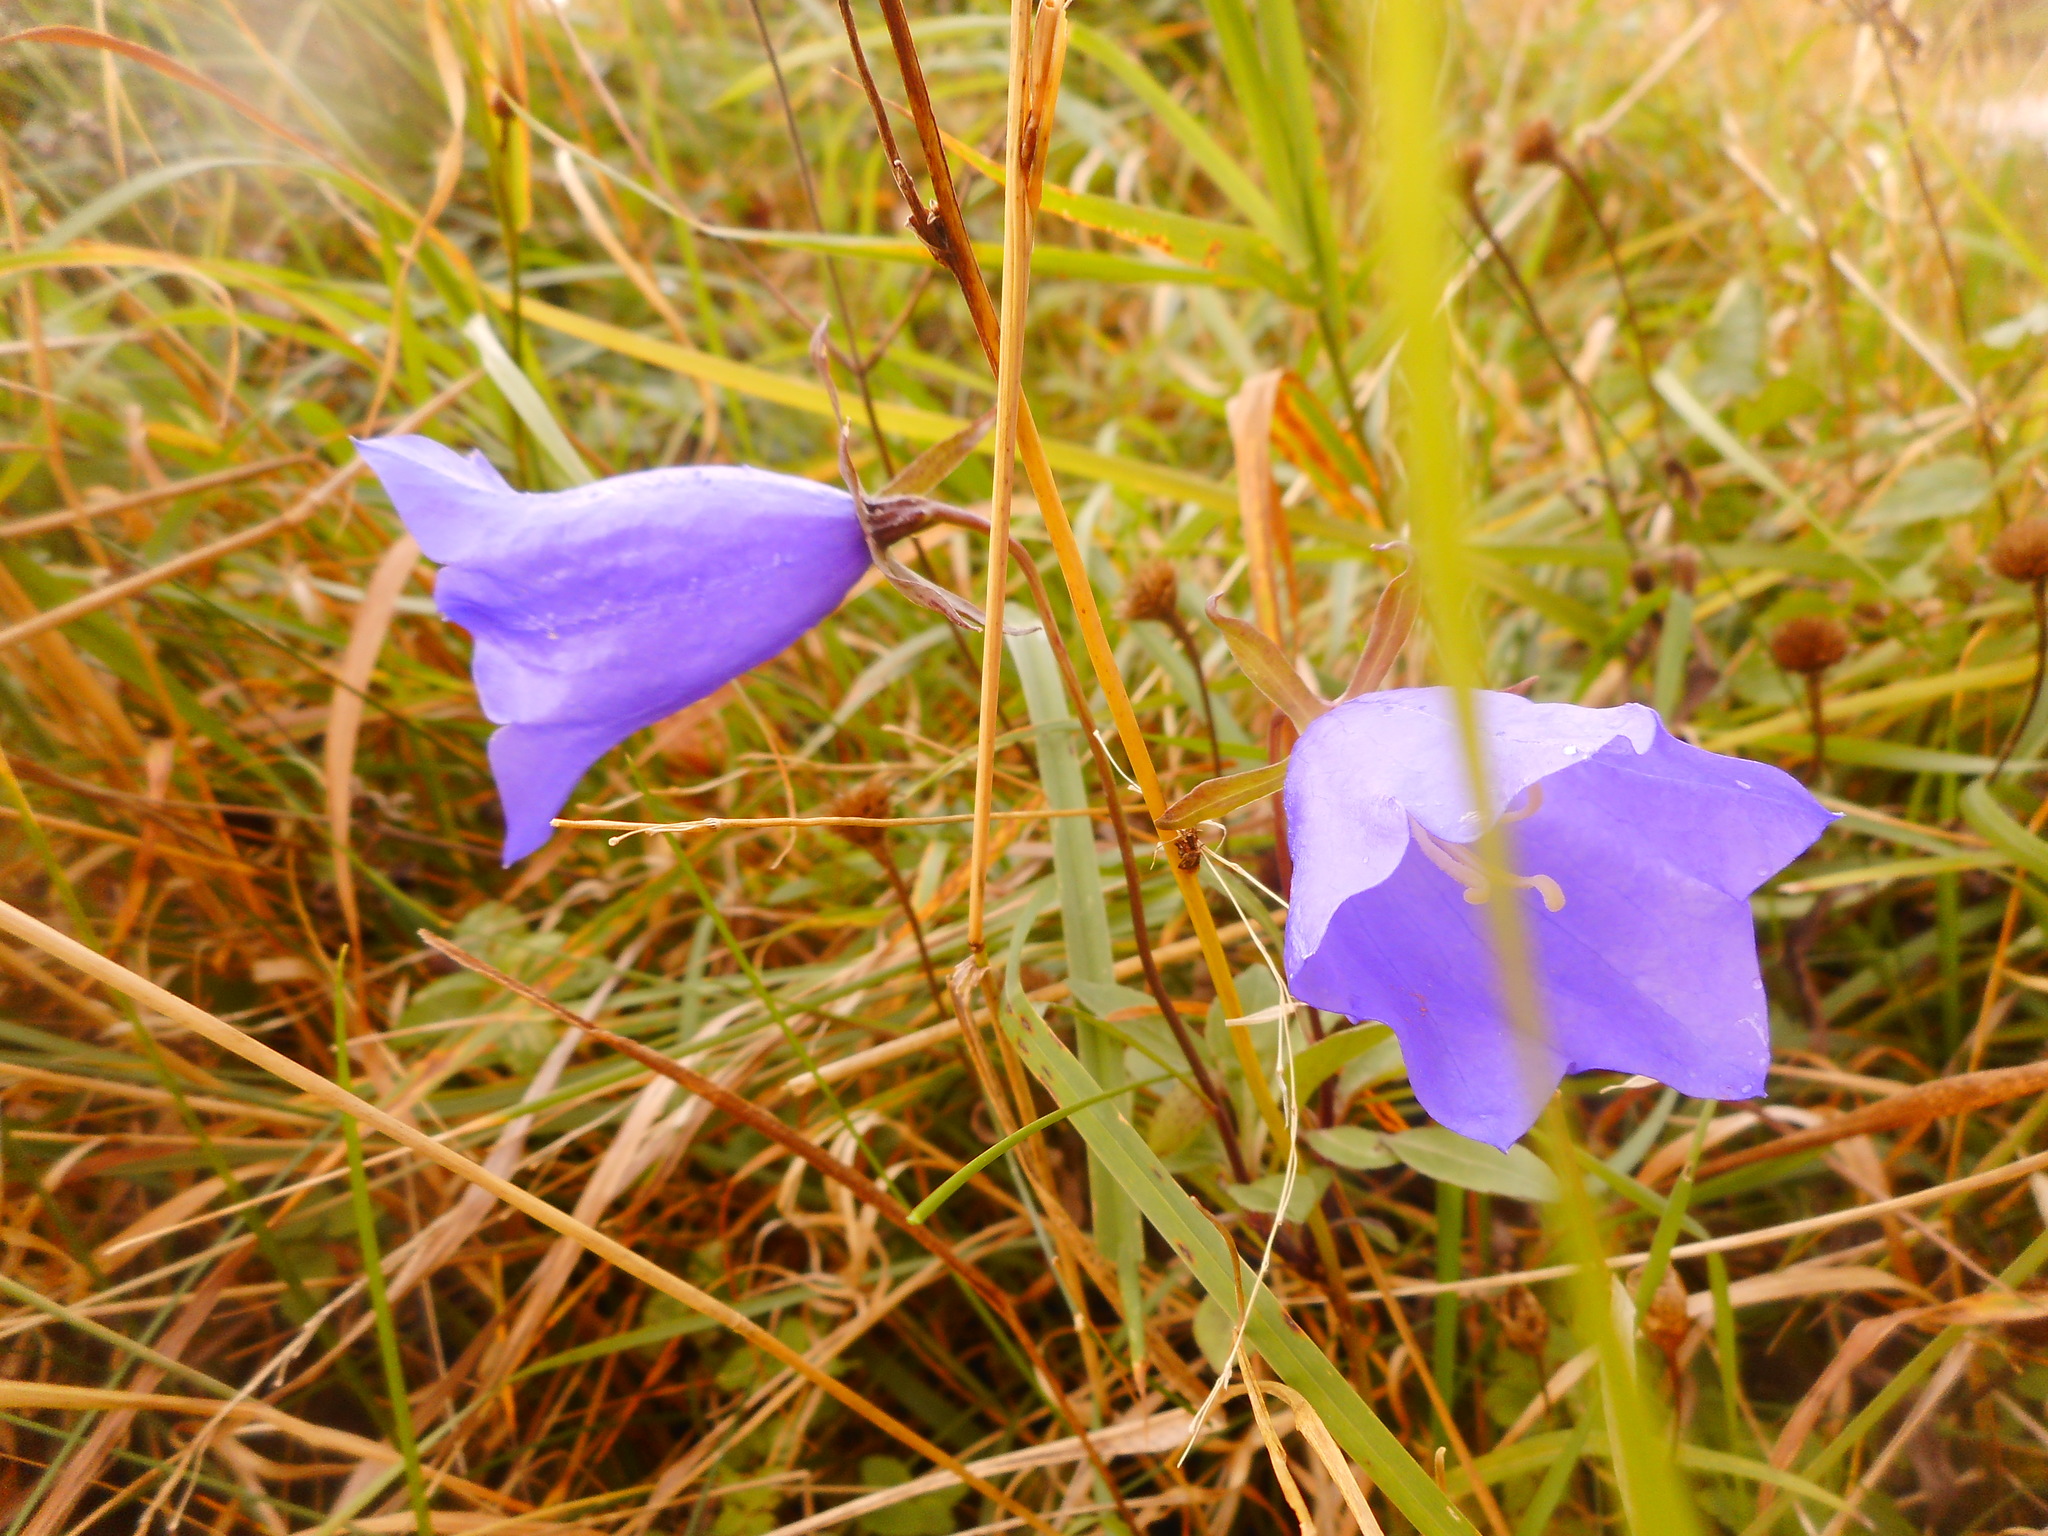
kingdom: Plantae
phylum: Tracheophyta
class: Magnoliopsida
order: Asterales
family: Campanulaceae
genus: Campanula
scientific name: Campanula persicifolia
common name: Peach-leaved bellflower
